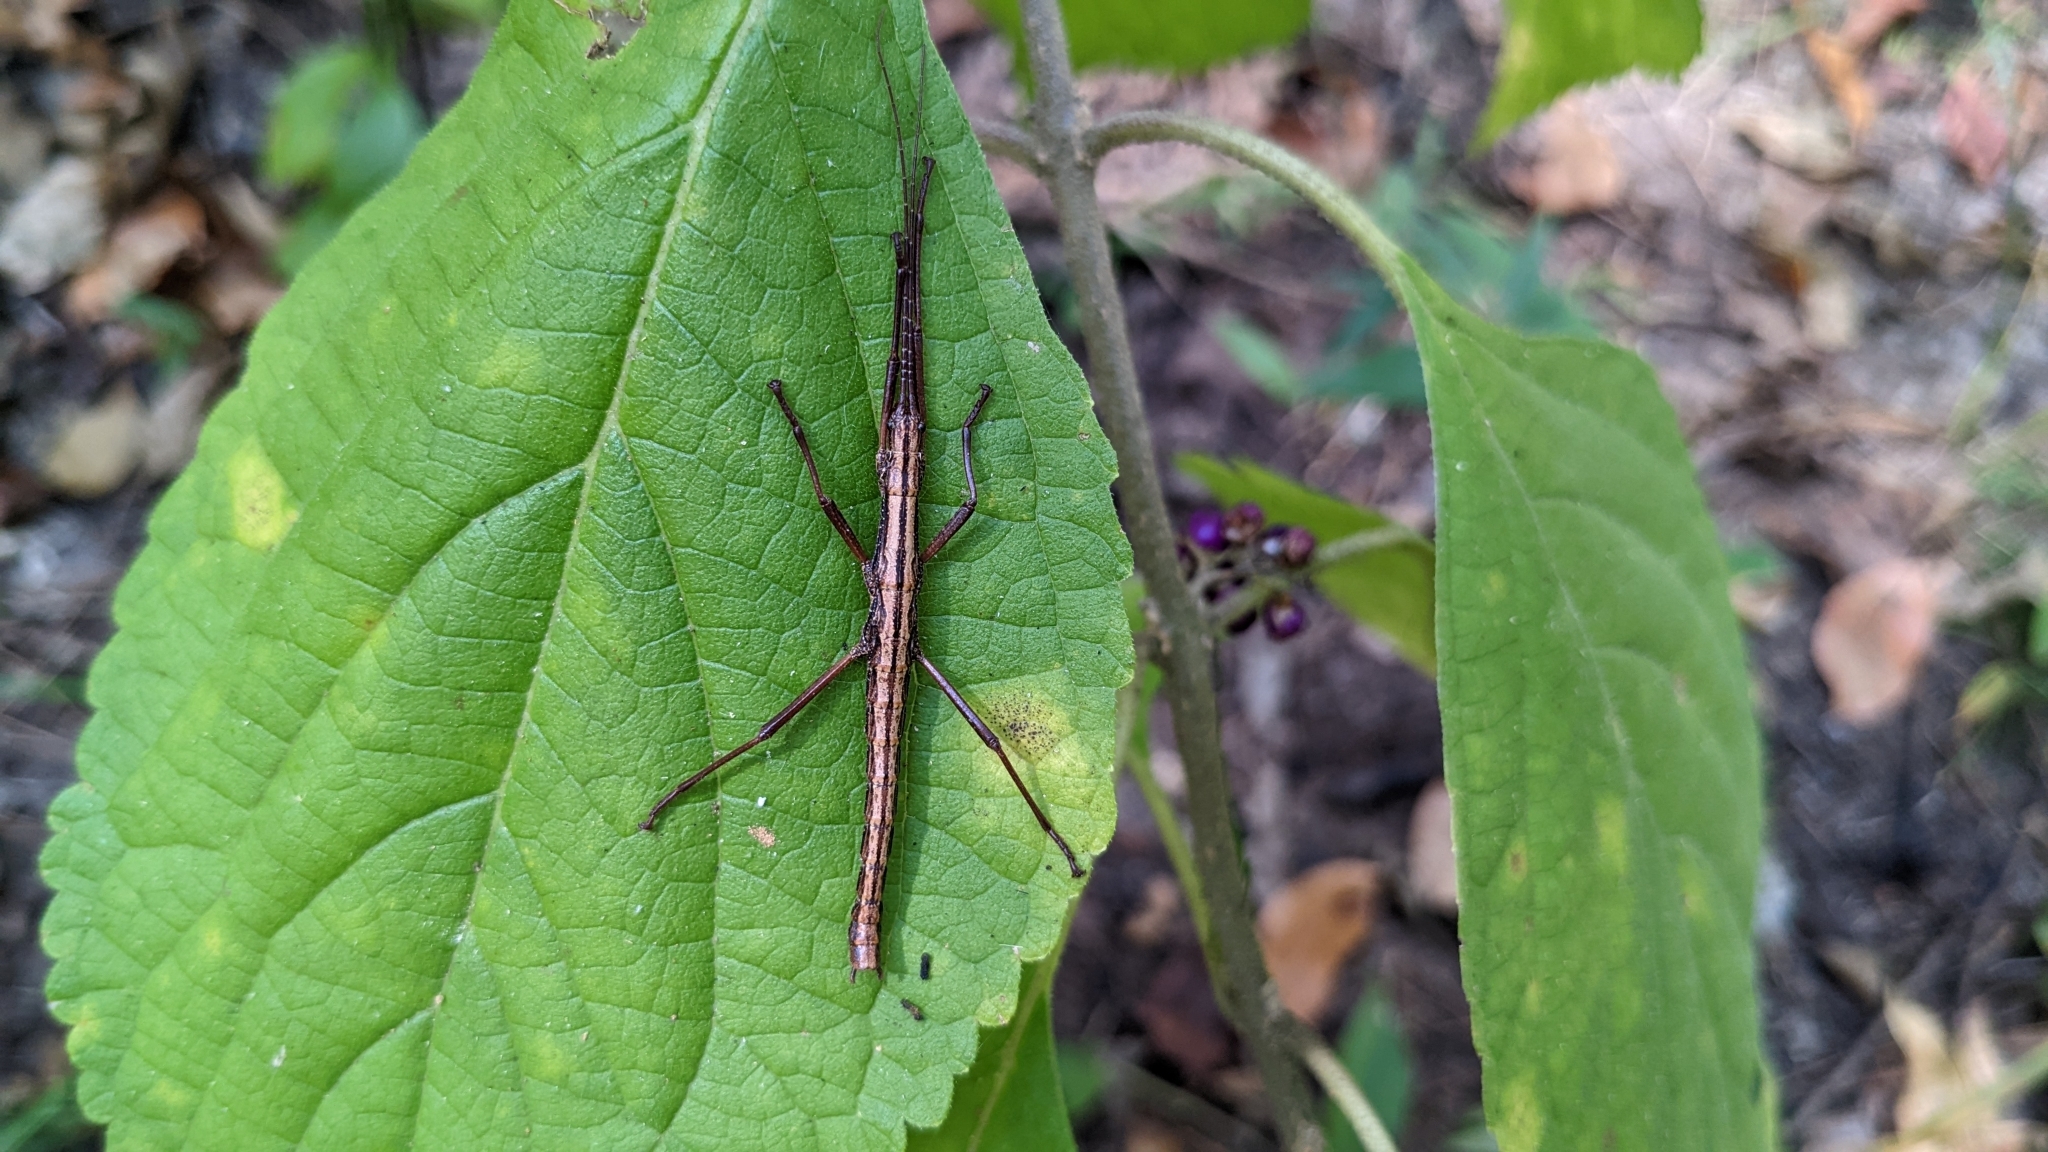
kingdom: Animalia
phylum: Arthropoda
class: Insecta
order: Phasmida
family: Pseudophasmatidae
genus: Anisomorpha
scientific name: Anisomorpha buprestoides
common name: Florida stick insect
